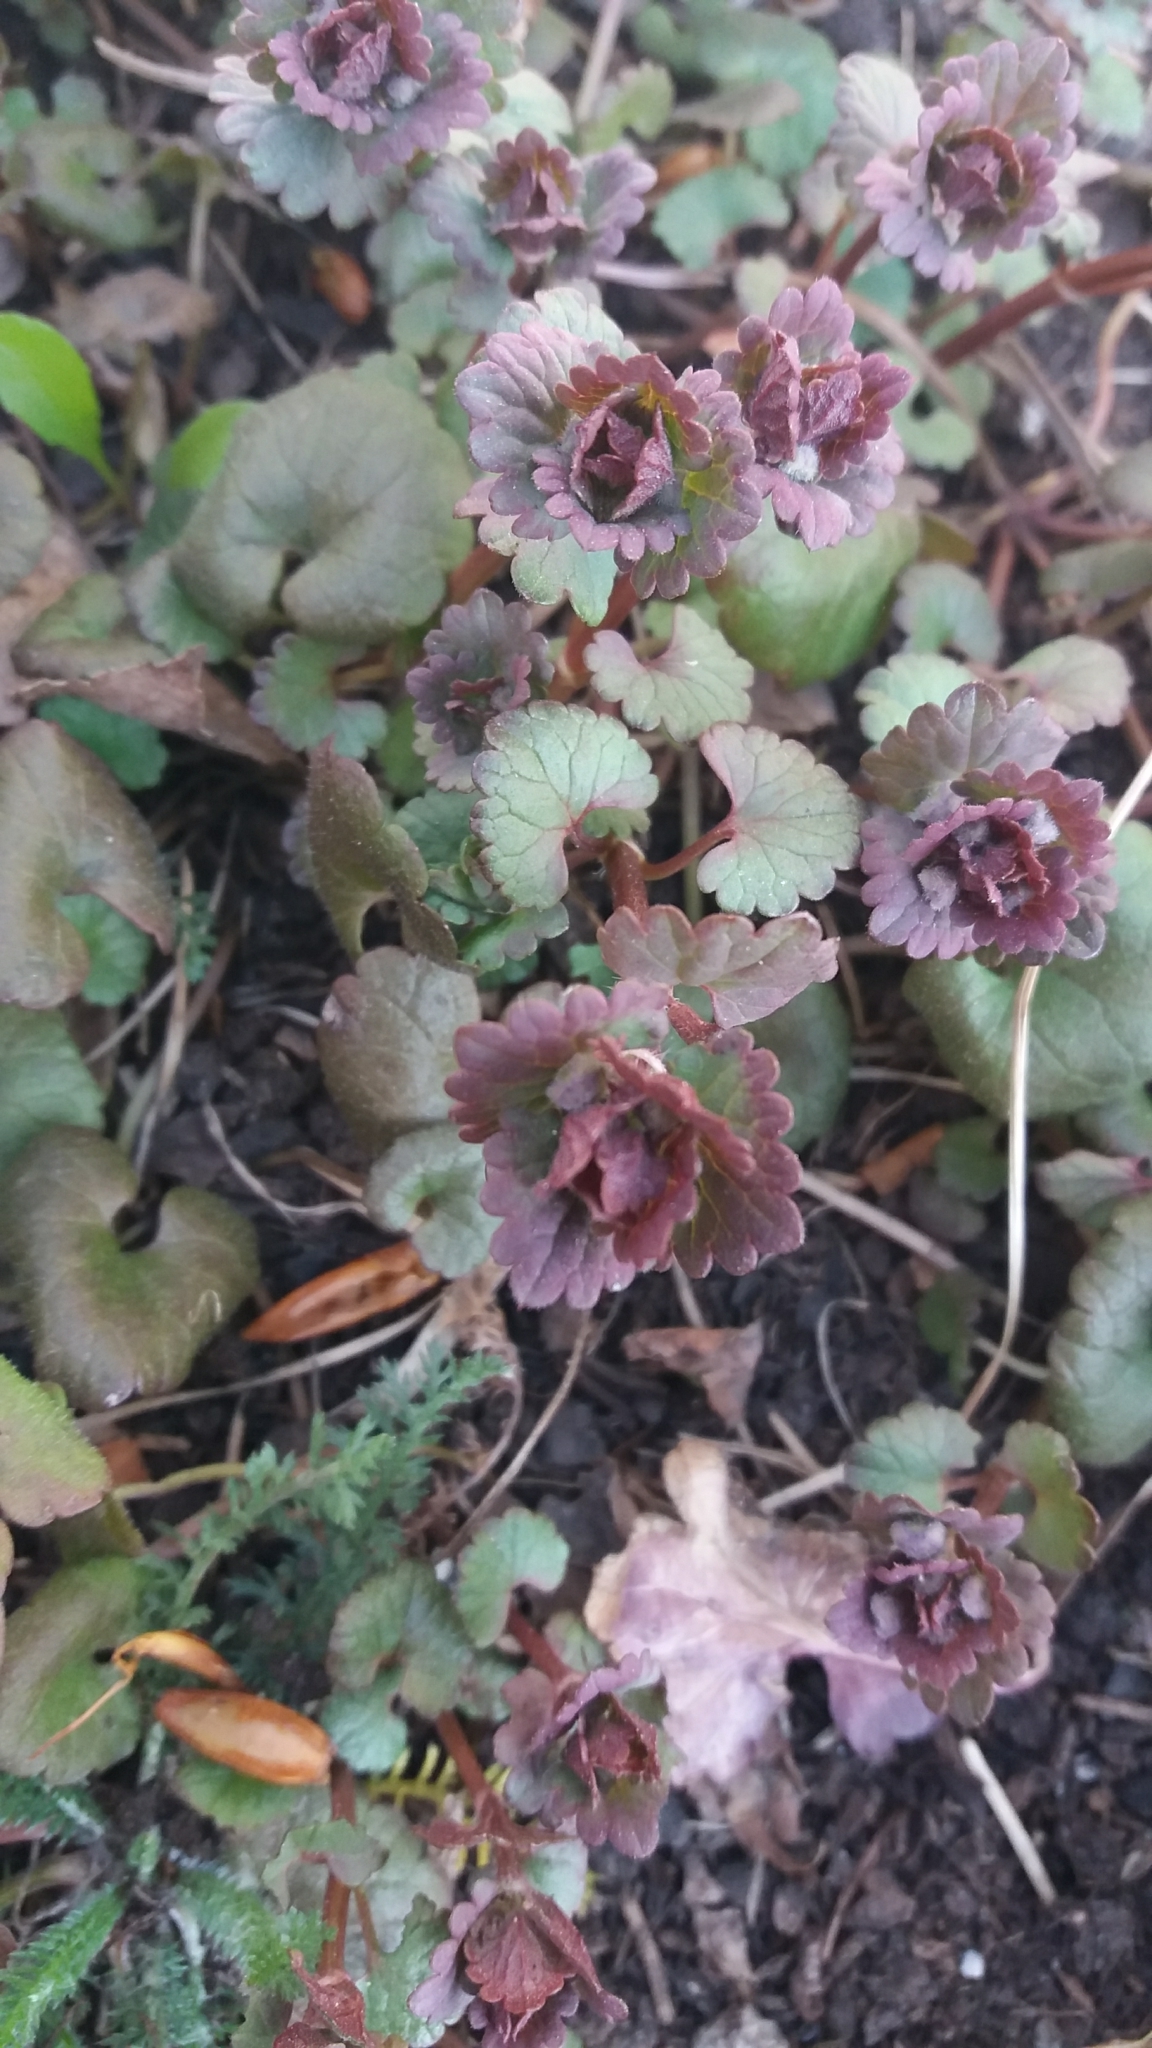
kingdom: Plantae
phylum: Tracheophyta
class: Magnoliopsida
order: Lamiales
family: Lamiaceae
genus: Glechoma
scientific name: Glechoma hederacea
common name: Ground ivy
